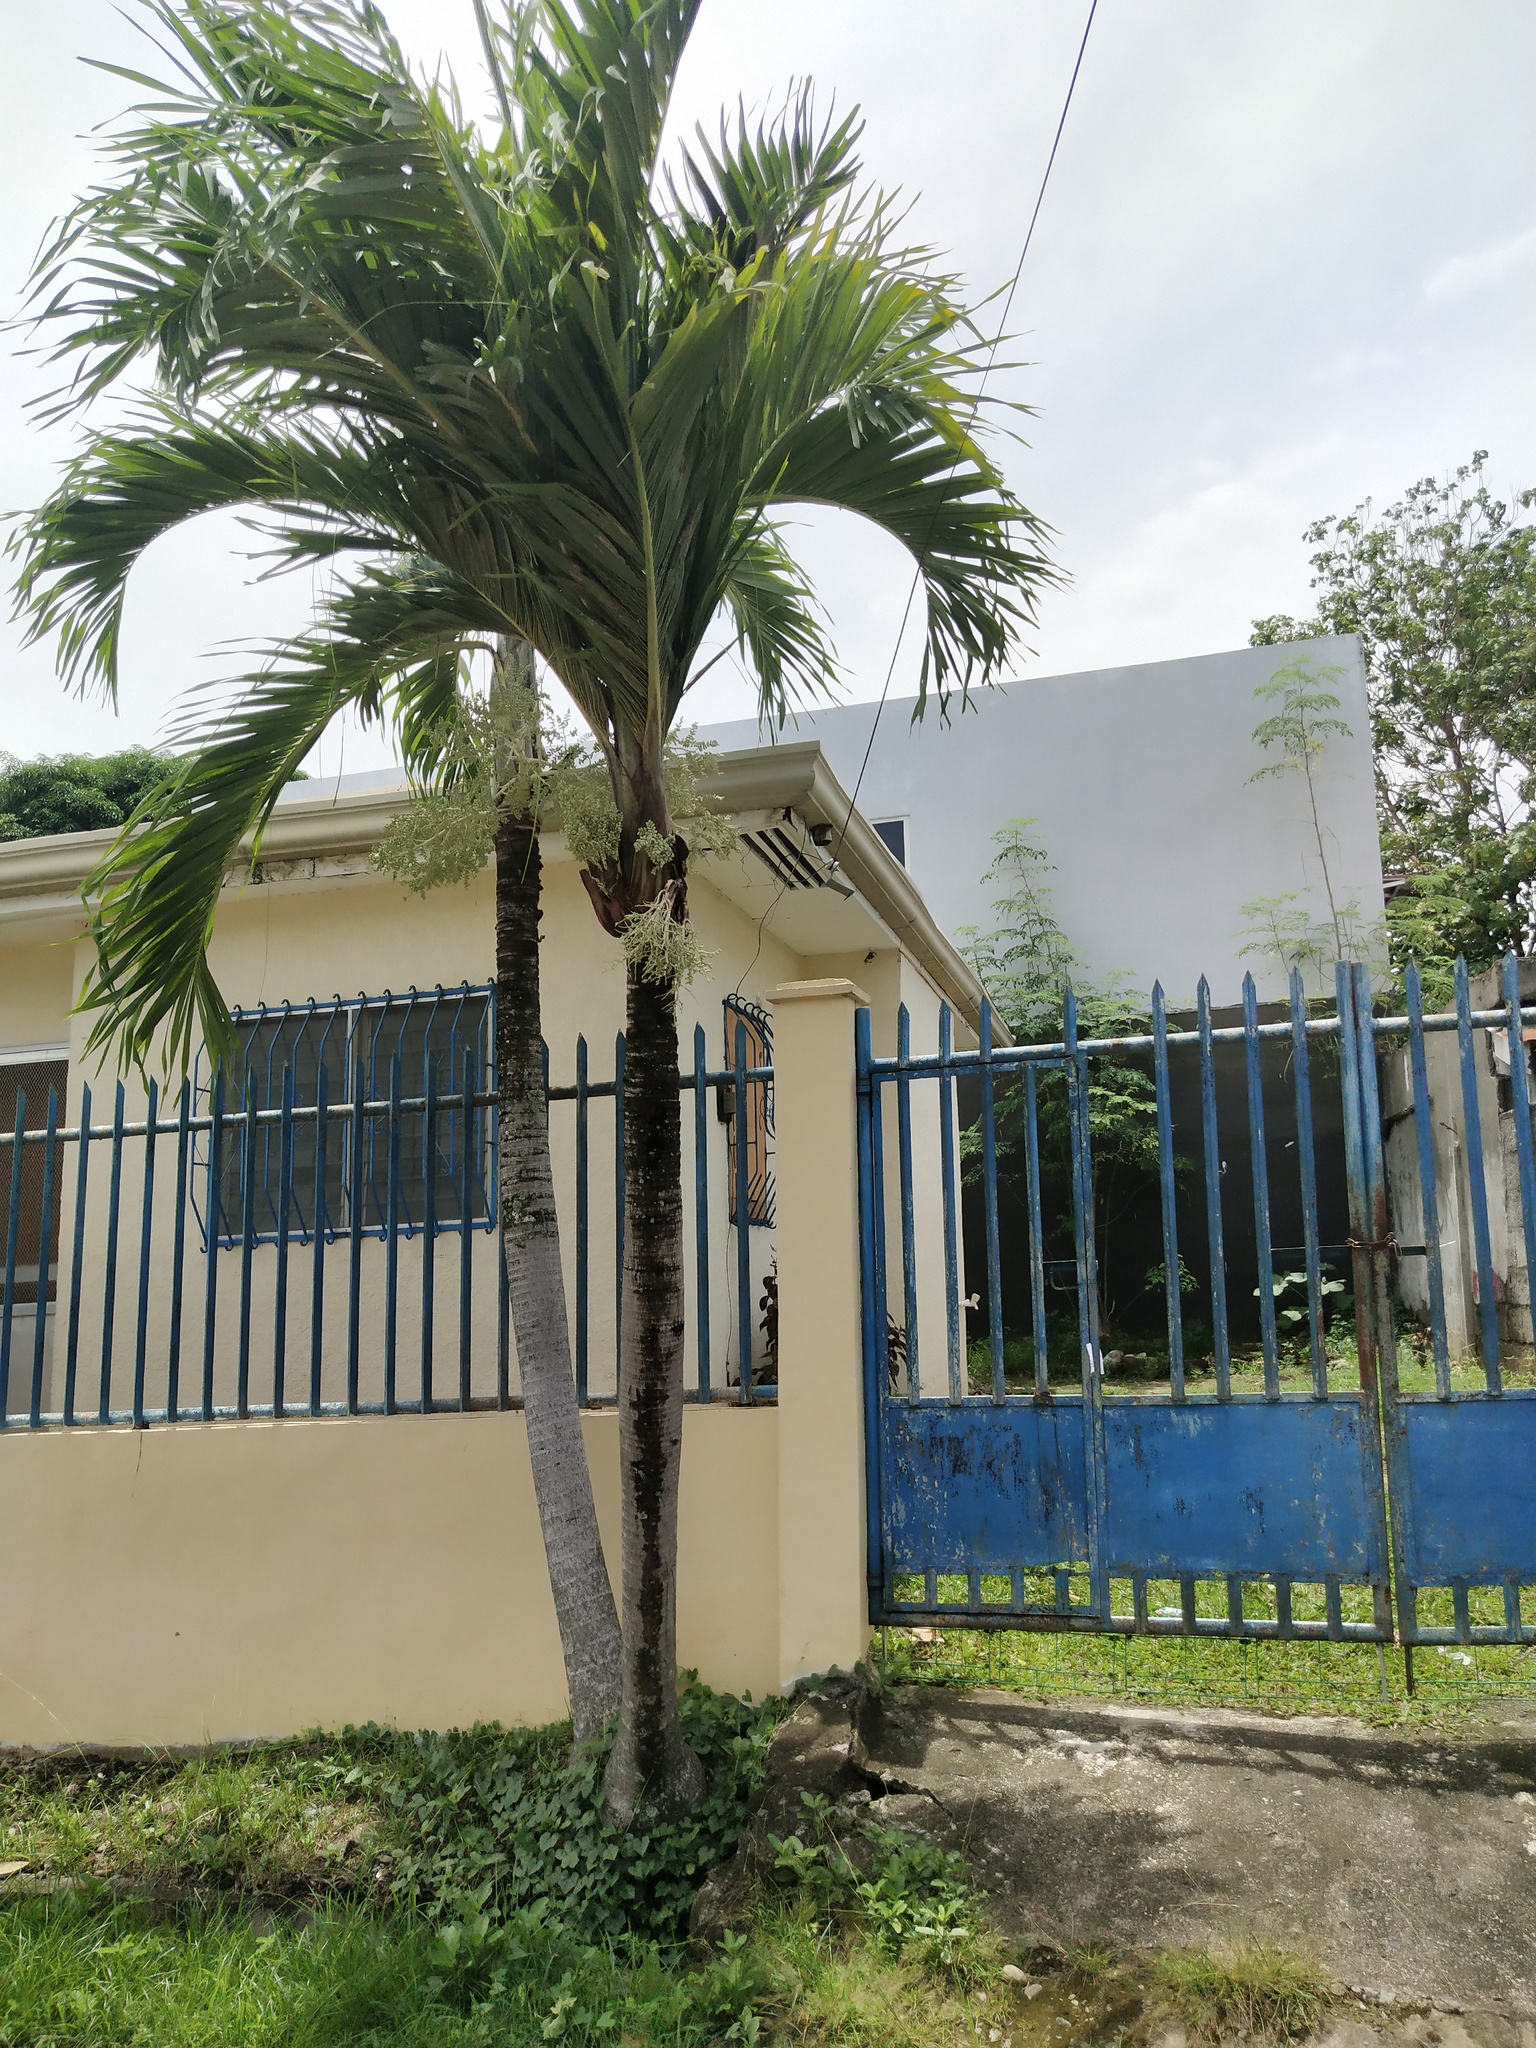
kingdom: Plantae
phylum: Tracheophyta
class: Liliopsida
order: Arecales
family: Arecaceae
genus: Adonidia
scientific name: Adonidia merrillii
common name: Manila palm
